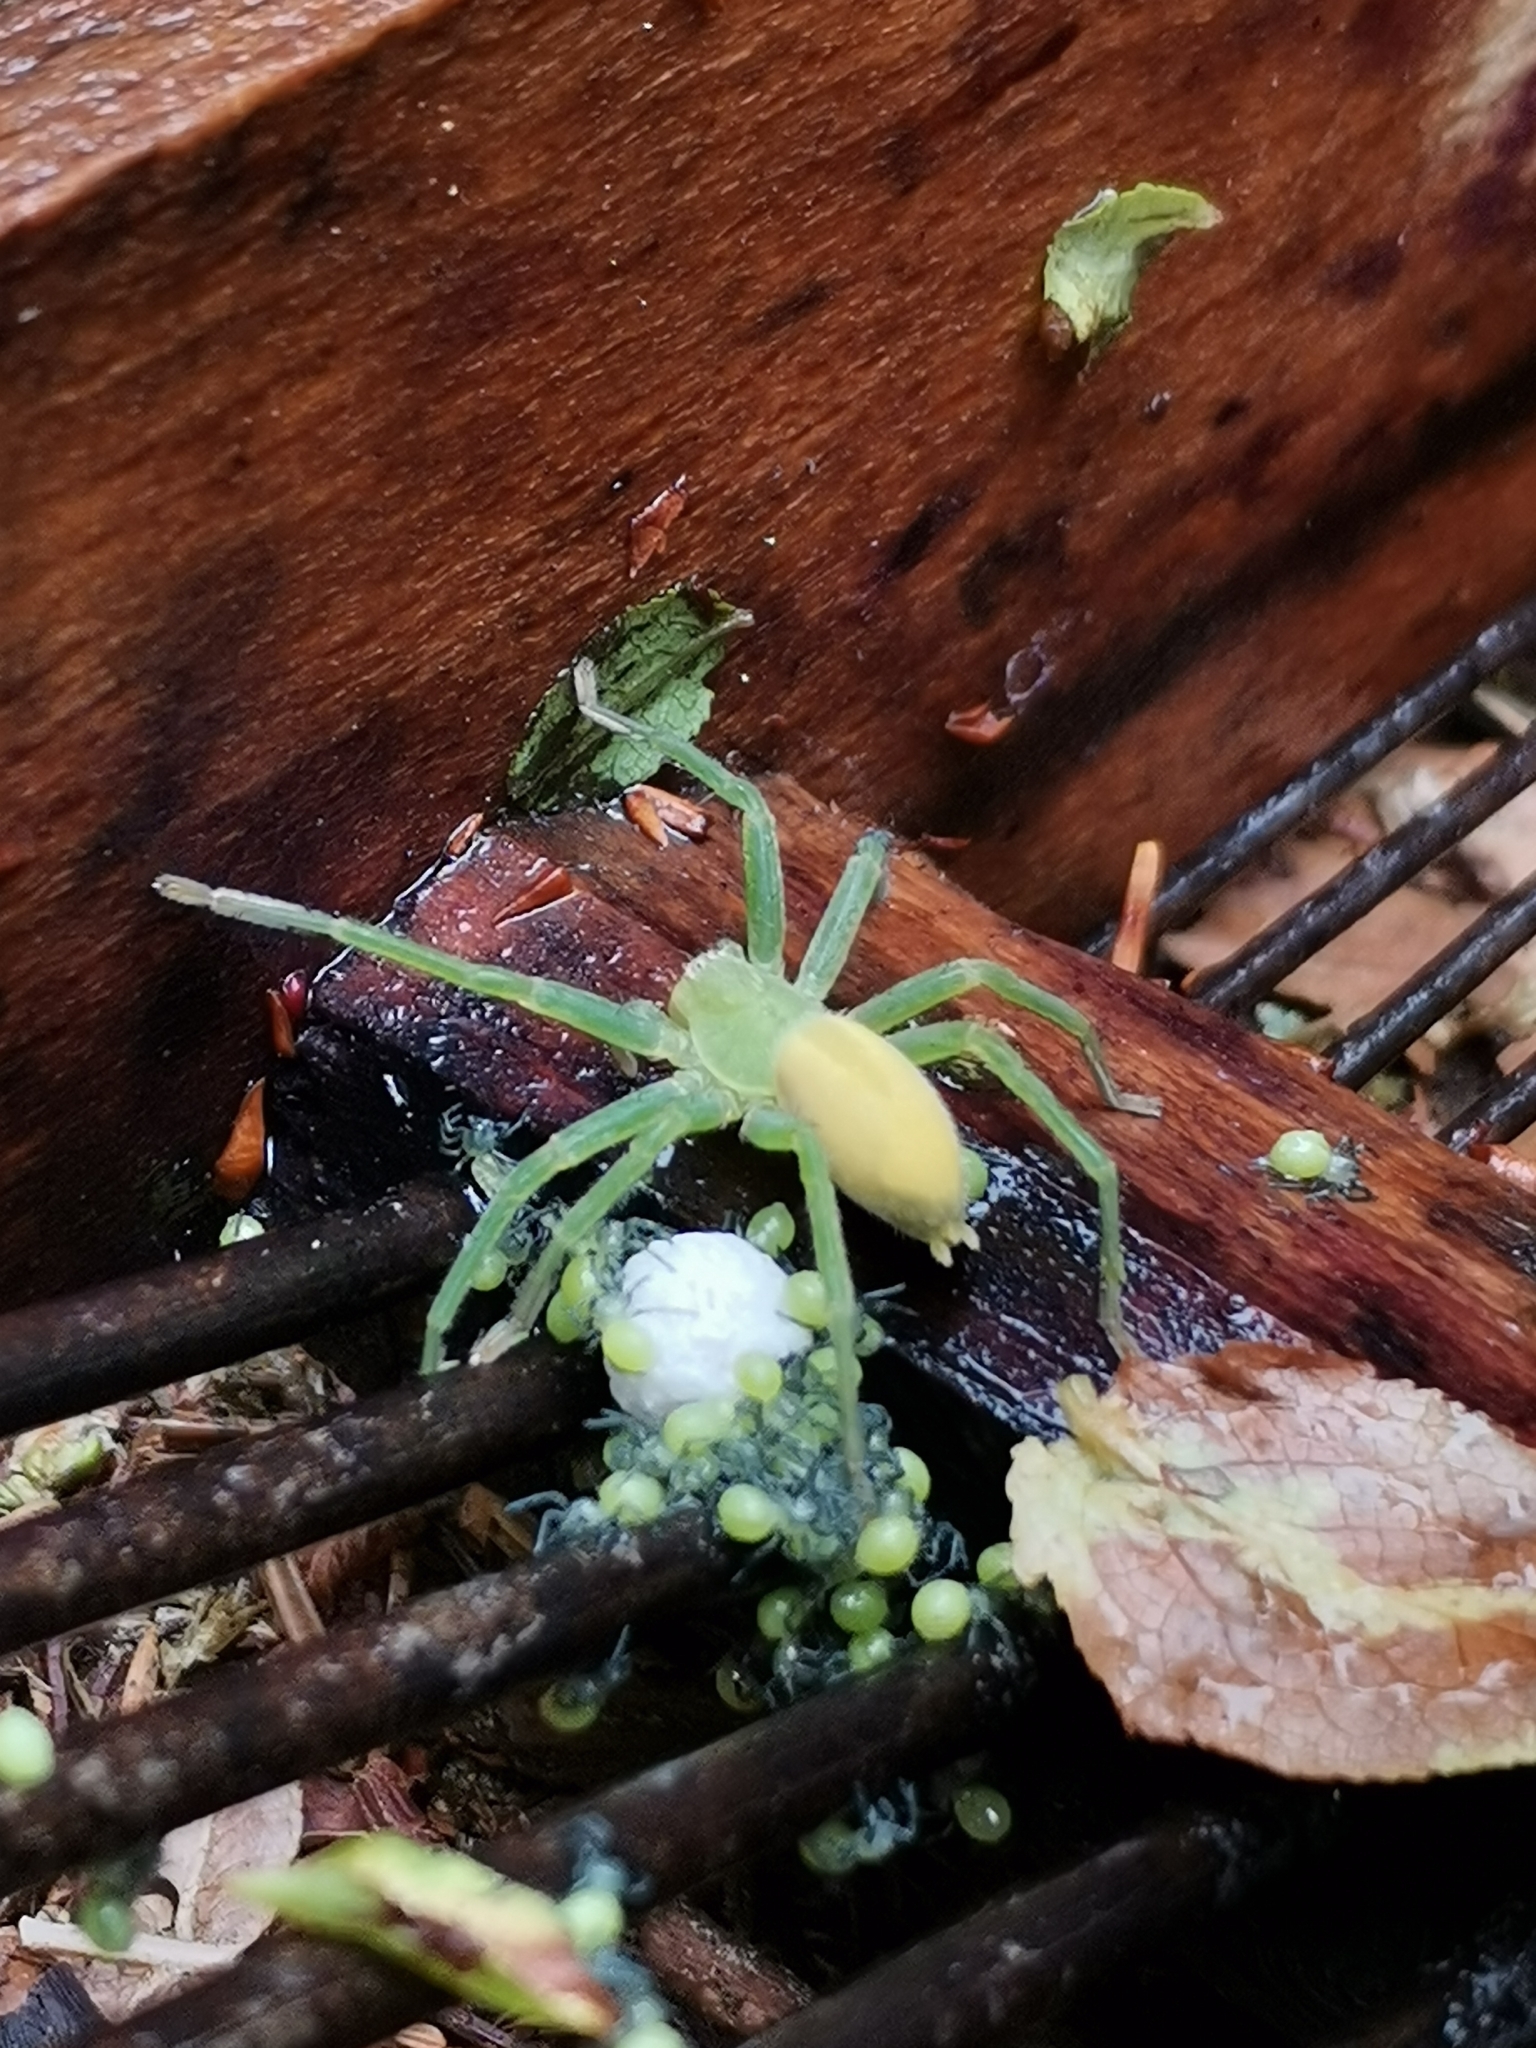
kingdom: Animalia
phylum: Arthropoda
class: Arachnida
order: Araneae
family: Sparassidae
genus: Micrommata
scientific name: Micrommata virescens
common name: Green spider
